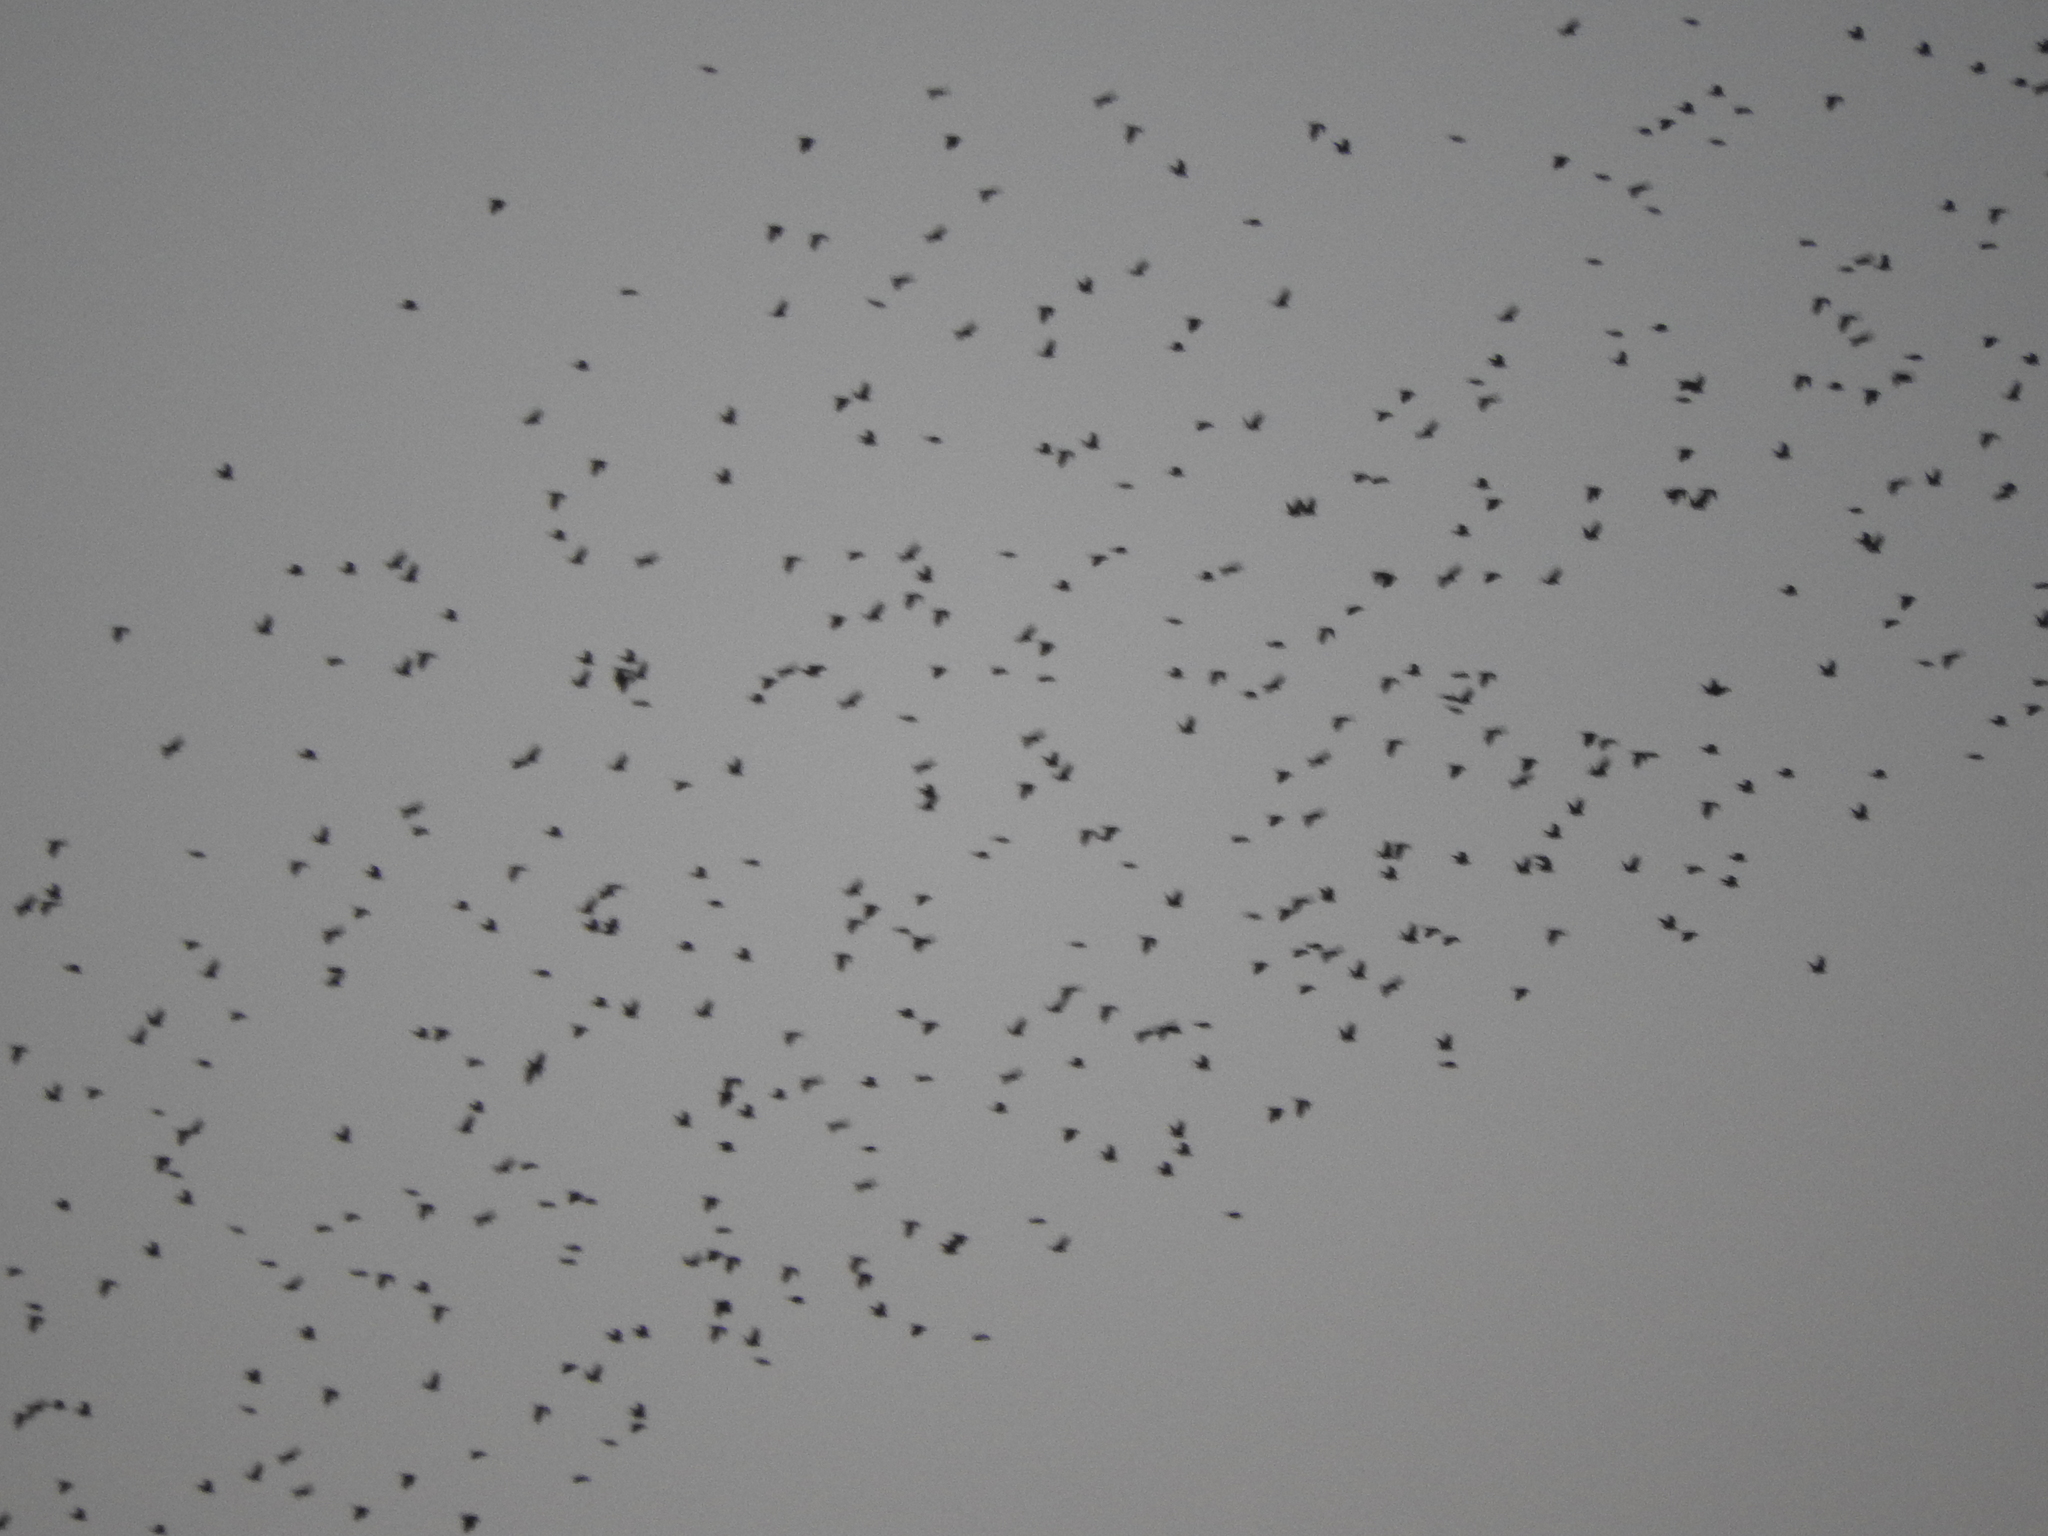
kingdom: Animalia
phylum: Chordata
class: Aves
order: Passeriformes
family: Icteridae
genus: Xanthocephalus
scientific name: Xanthocephalus xanthocephalus
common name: Yellow-headed blackbird
